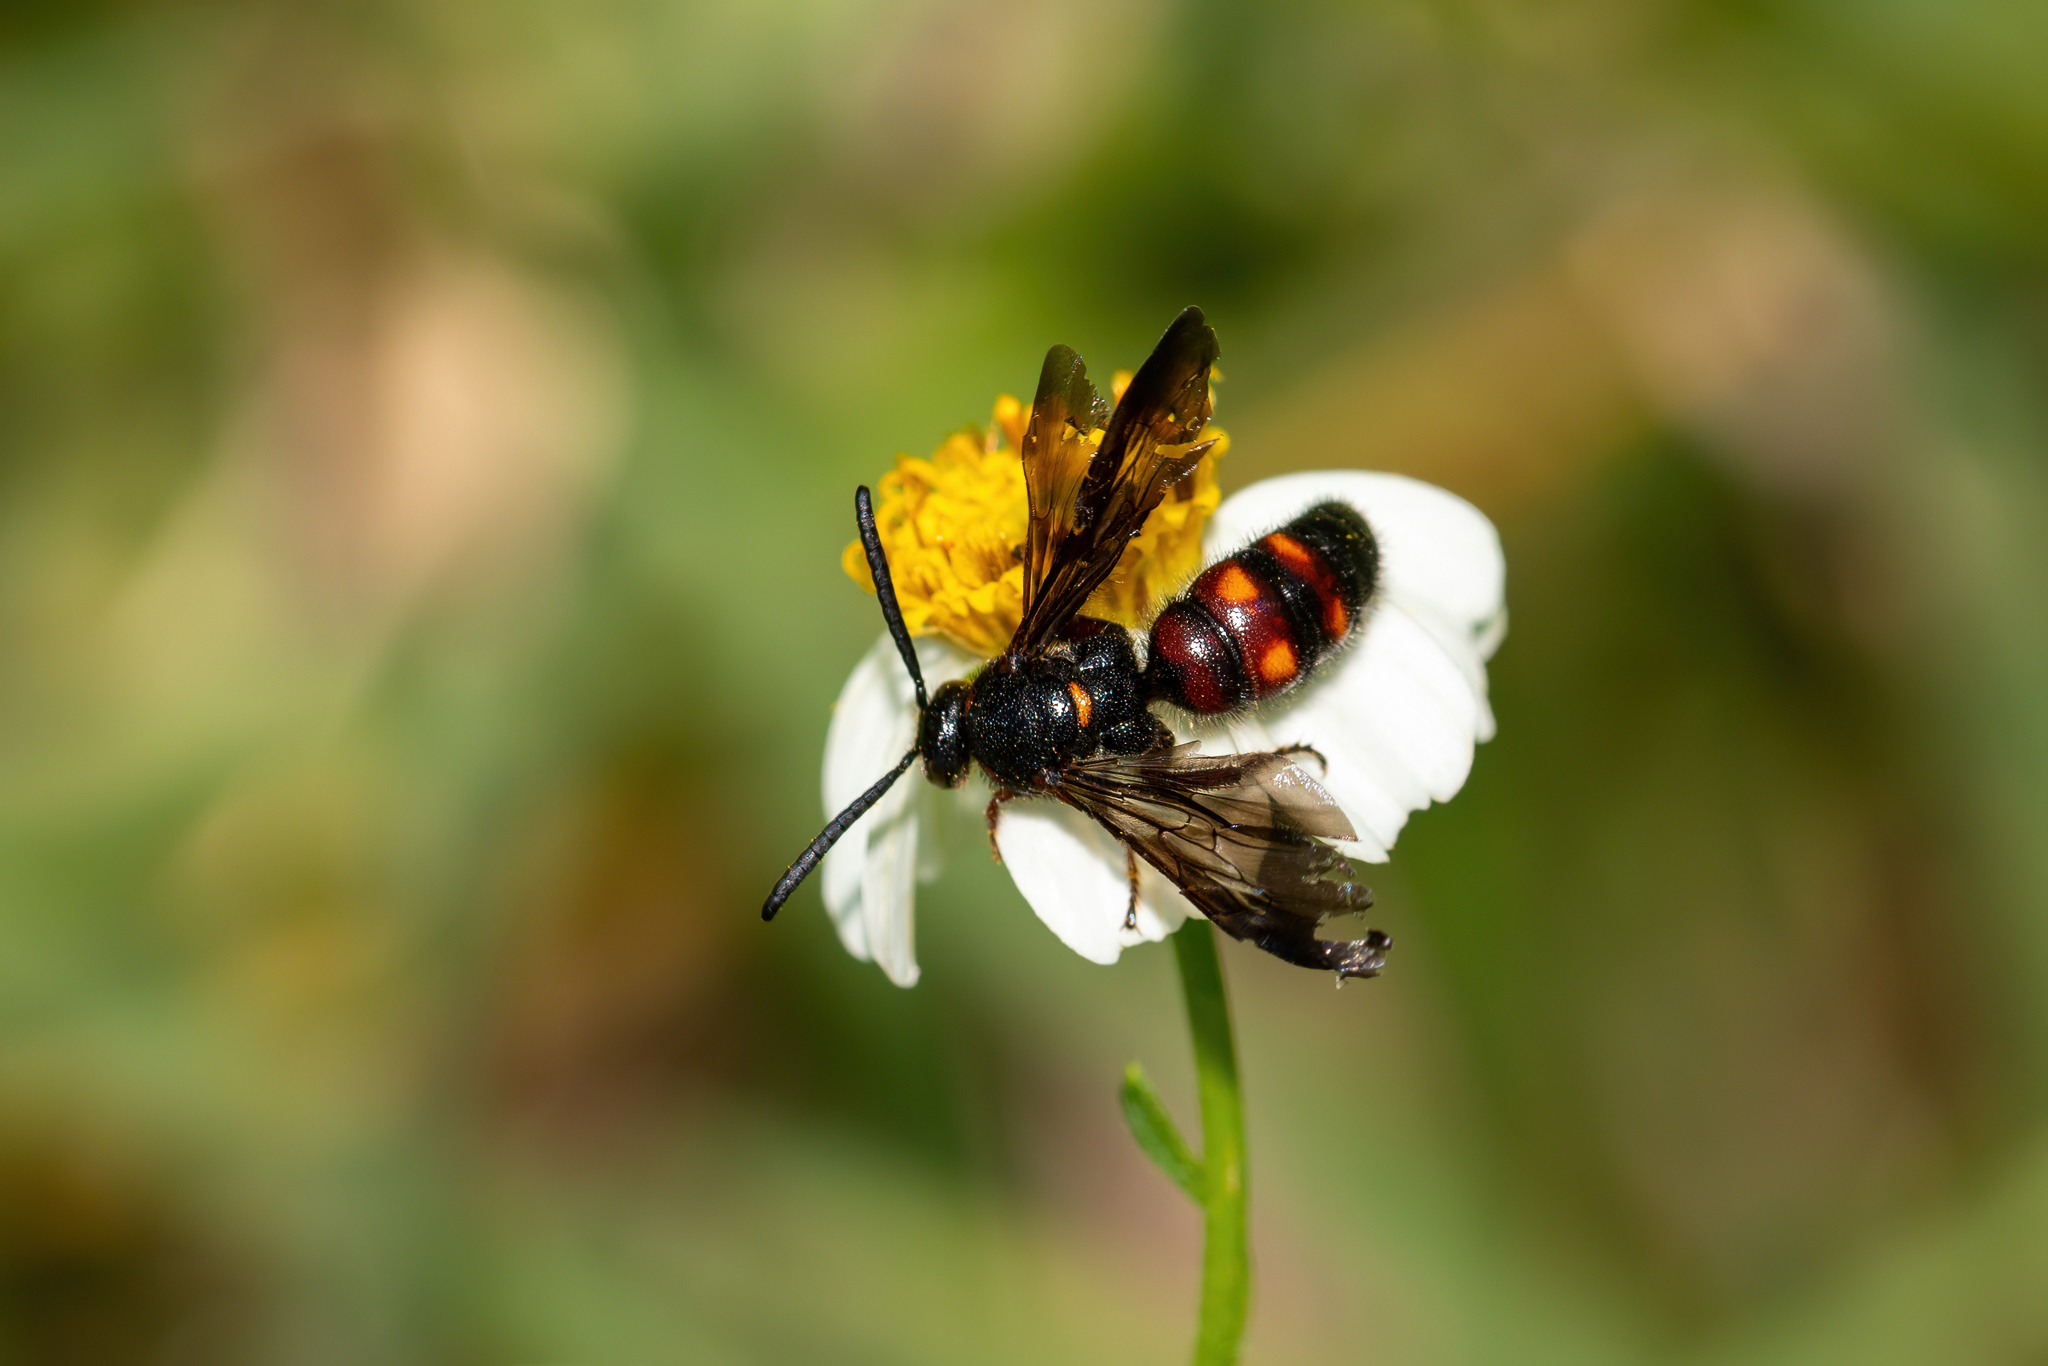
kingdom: Animalia
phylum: Arthropoda
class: Insecta
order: Hymenoptera
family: Scoliidae
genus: Scolia
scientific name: Scolia nobilitata
